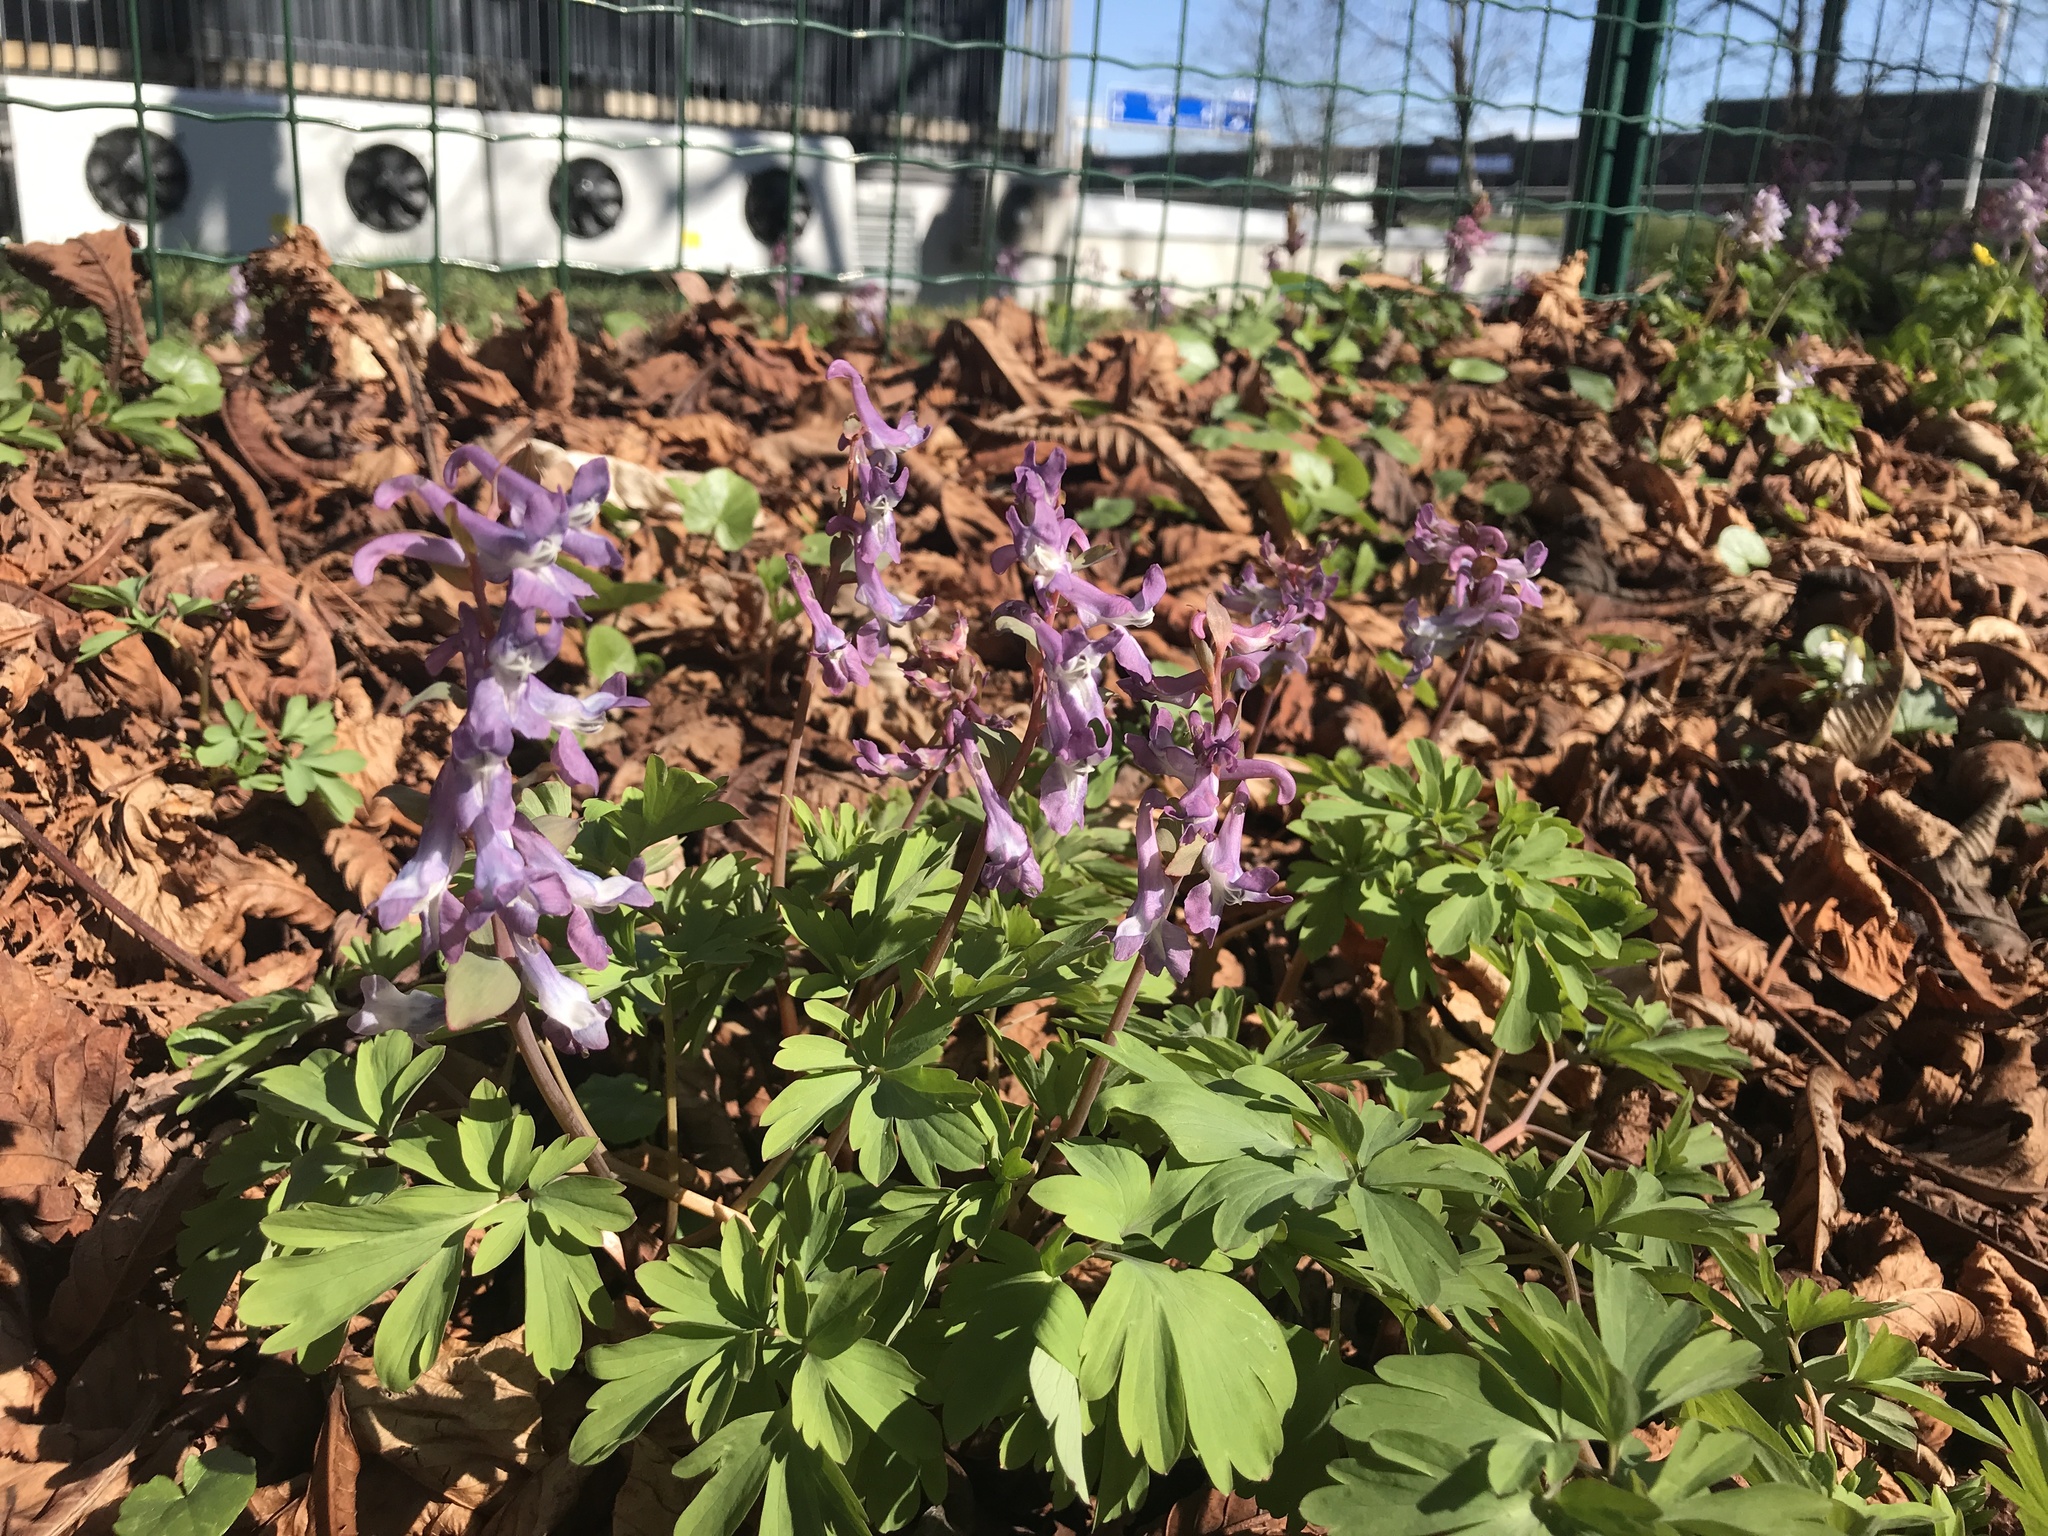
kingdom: Plantae
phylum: Tracheophyta
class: Magnoliopsida
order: Ranunculales
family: Papaveraceae
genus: Corydalis
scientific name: Corydalis cava
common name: Hollowroot
